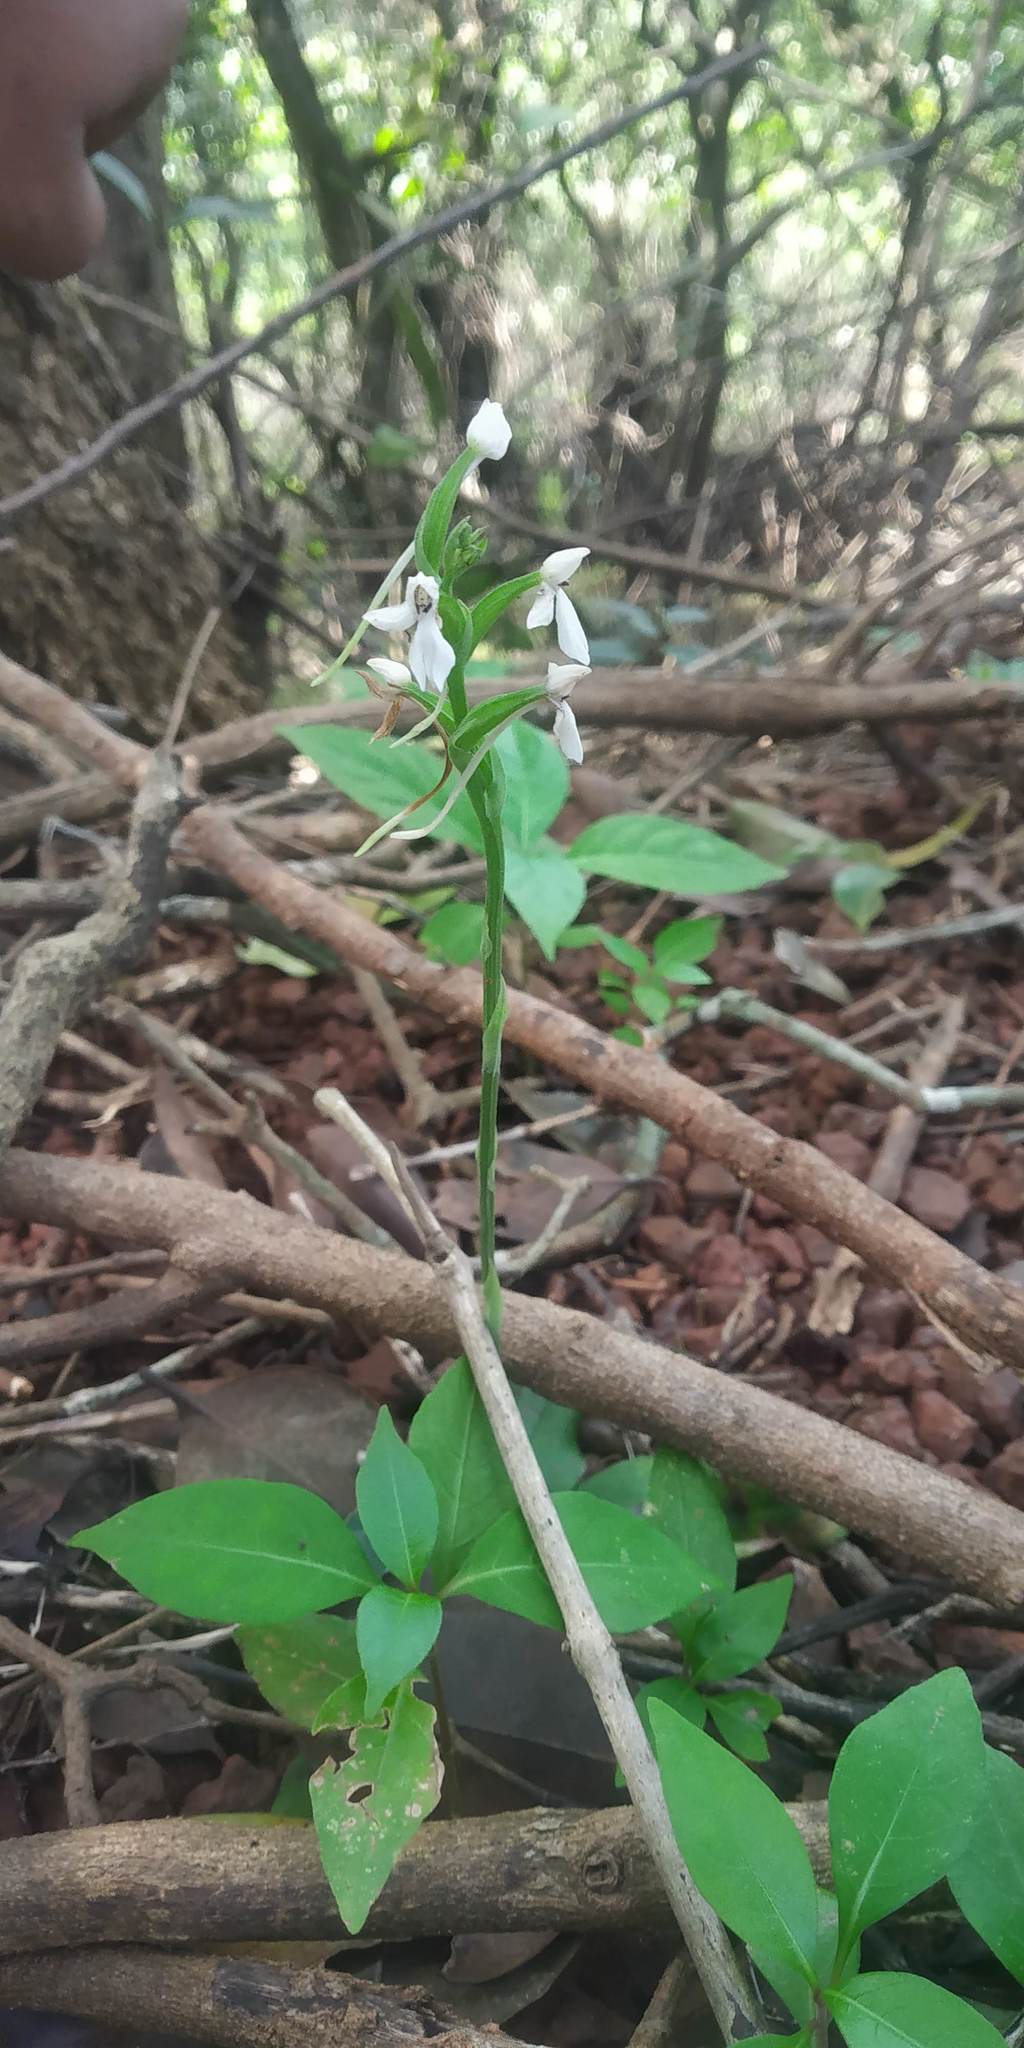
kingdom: Plantae
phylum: Tracheophyta
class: Liliopsida
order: Asparagales
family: Orchidaceae
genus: Habenaria
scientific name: Habenaria plantaginea
